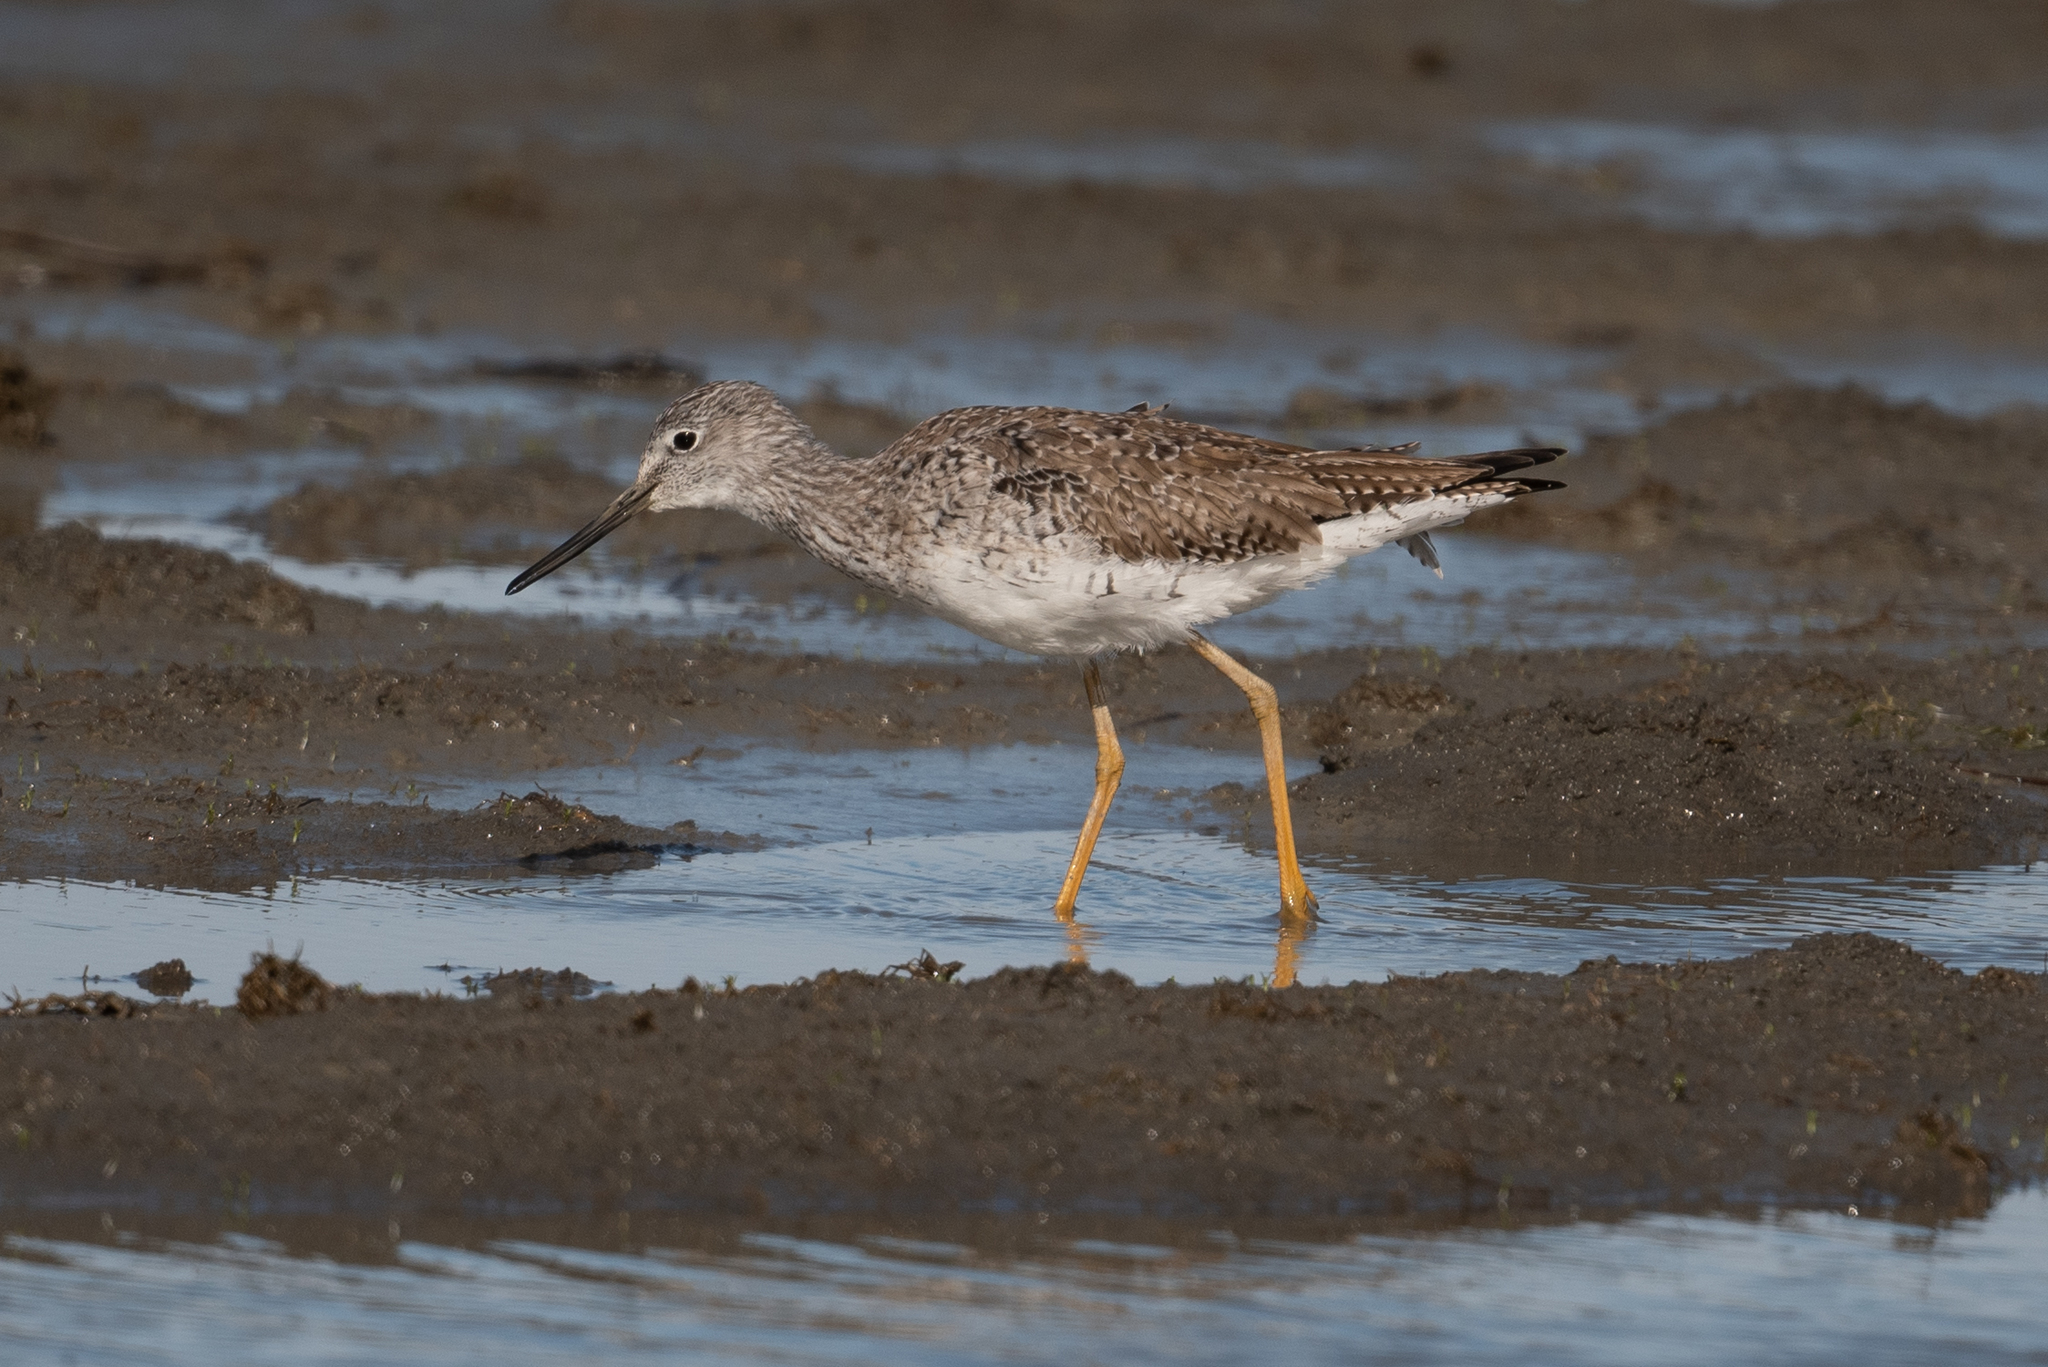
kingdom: Animalia
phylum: Chordata
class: Aves
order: Charadriiformes
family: Scolopacidae
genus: Tringa
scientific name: Tringa melanoleuca
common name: Greater yellowlegs
